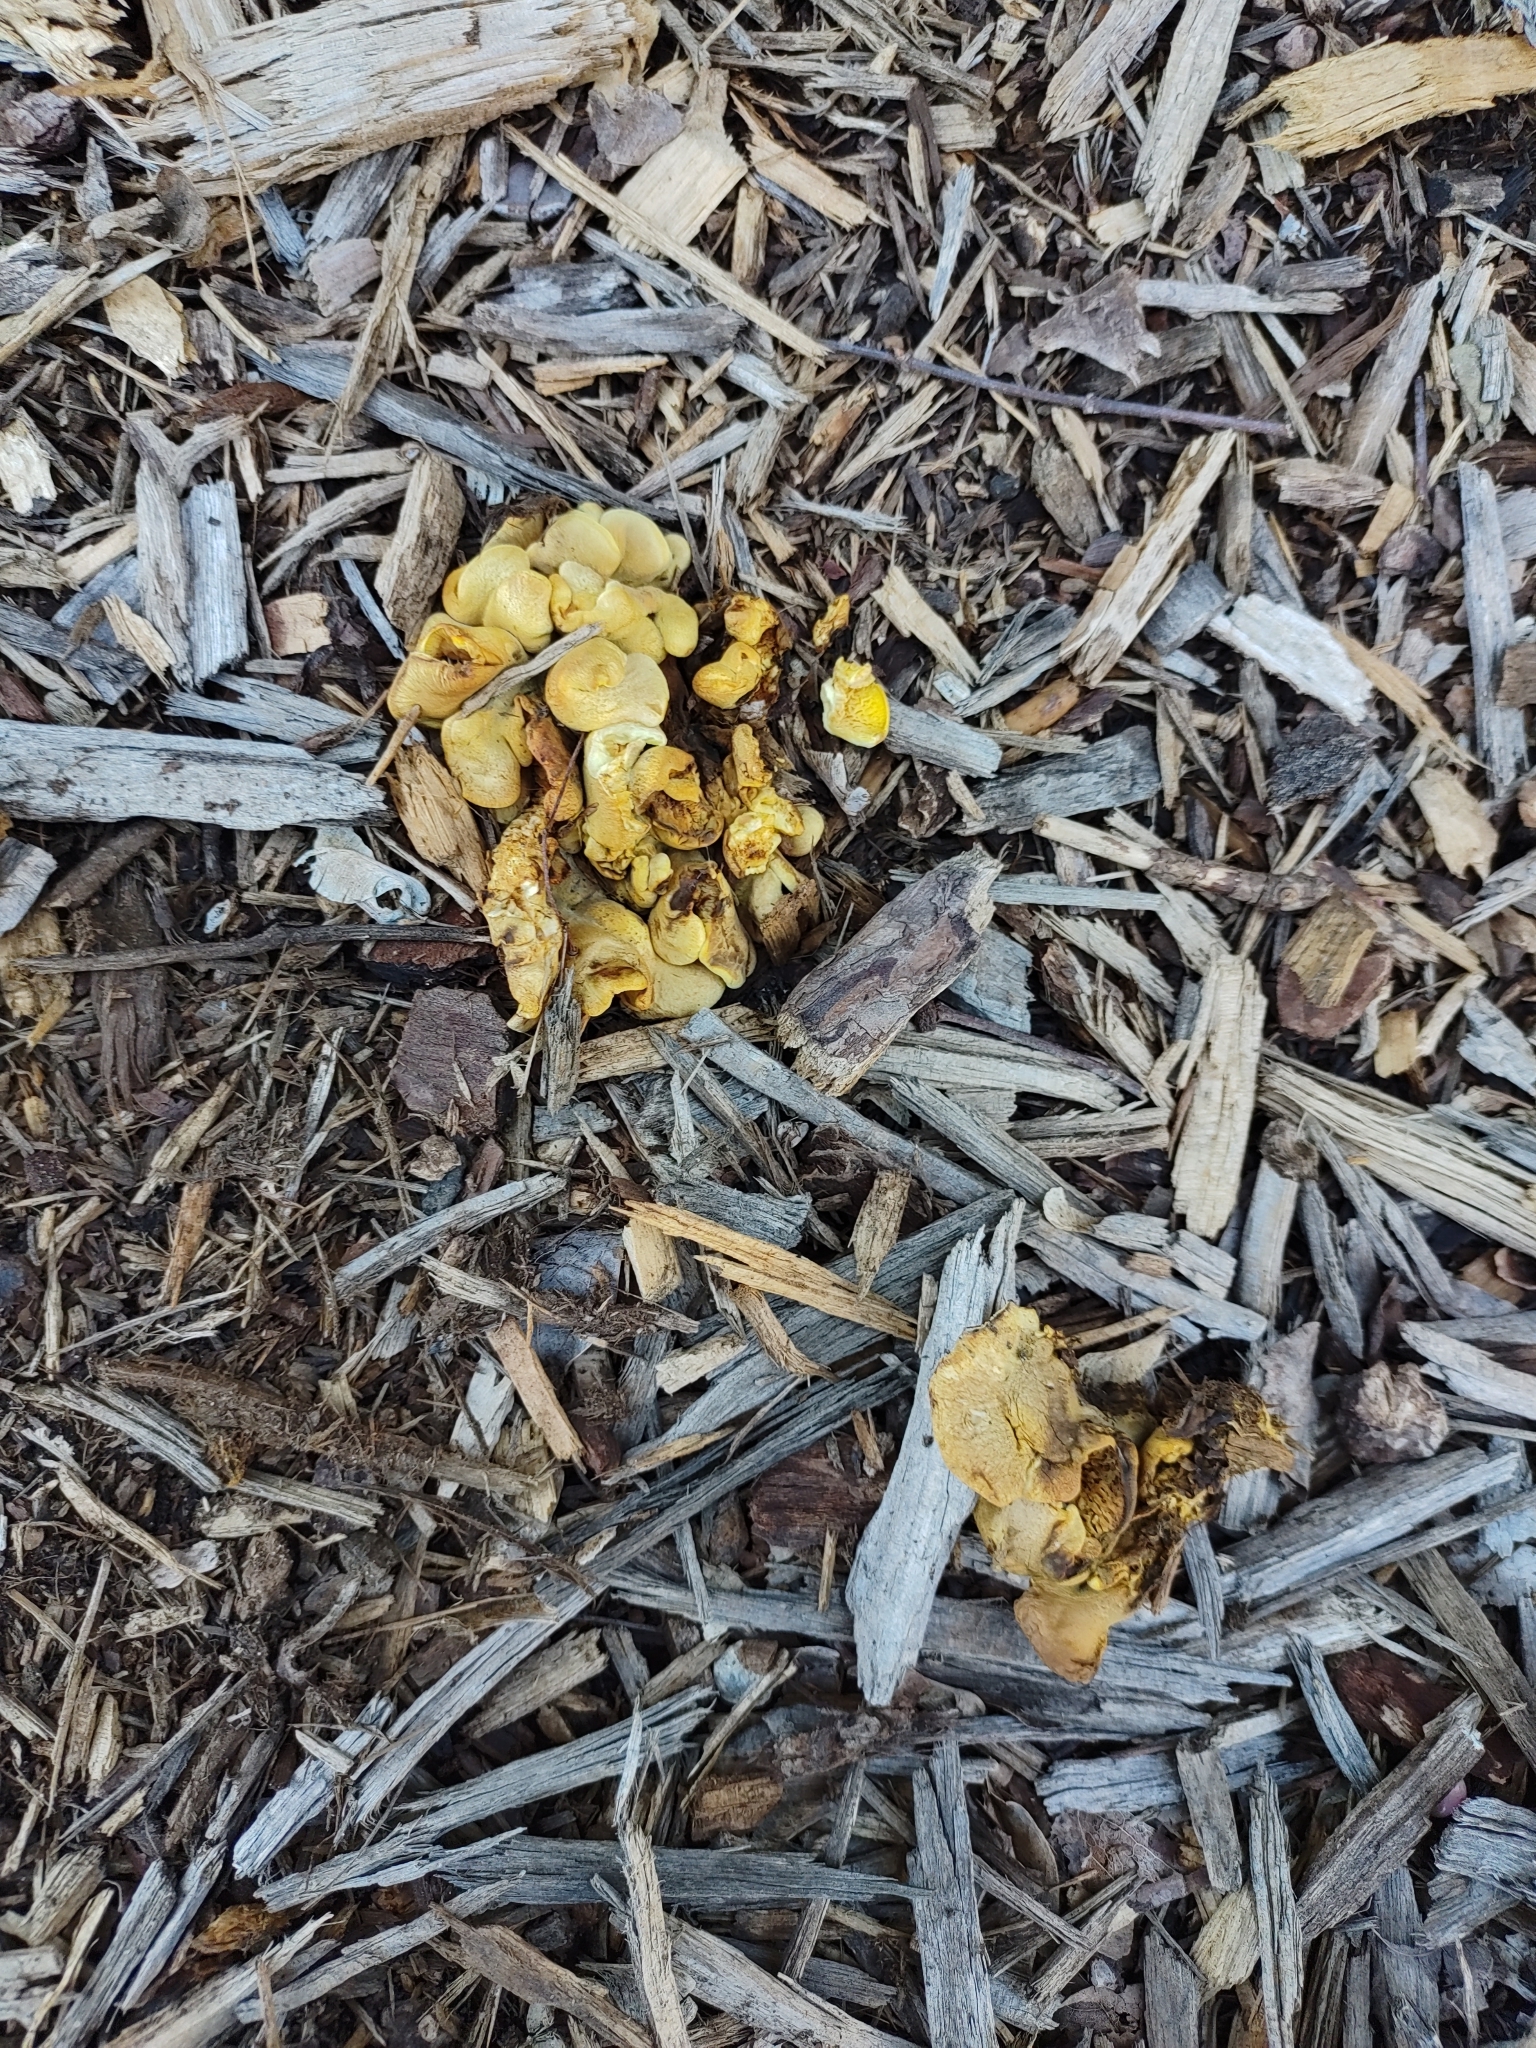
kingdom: Fungi
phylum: Basidiomycota
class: Agaricomycetes
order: Boletales
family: Tapinellaceae
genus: Tapinella
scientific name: Tapinella panuoides
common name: Oyster rollrim
